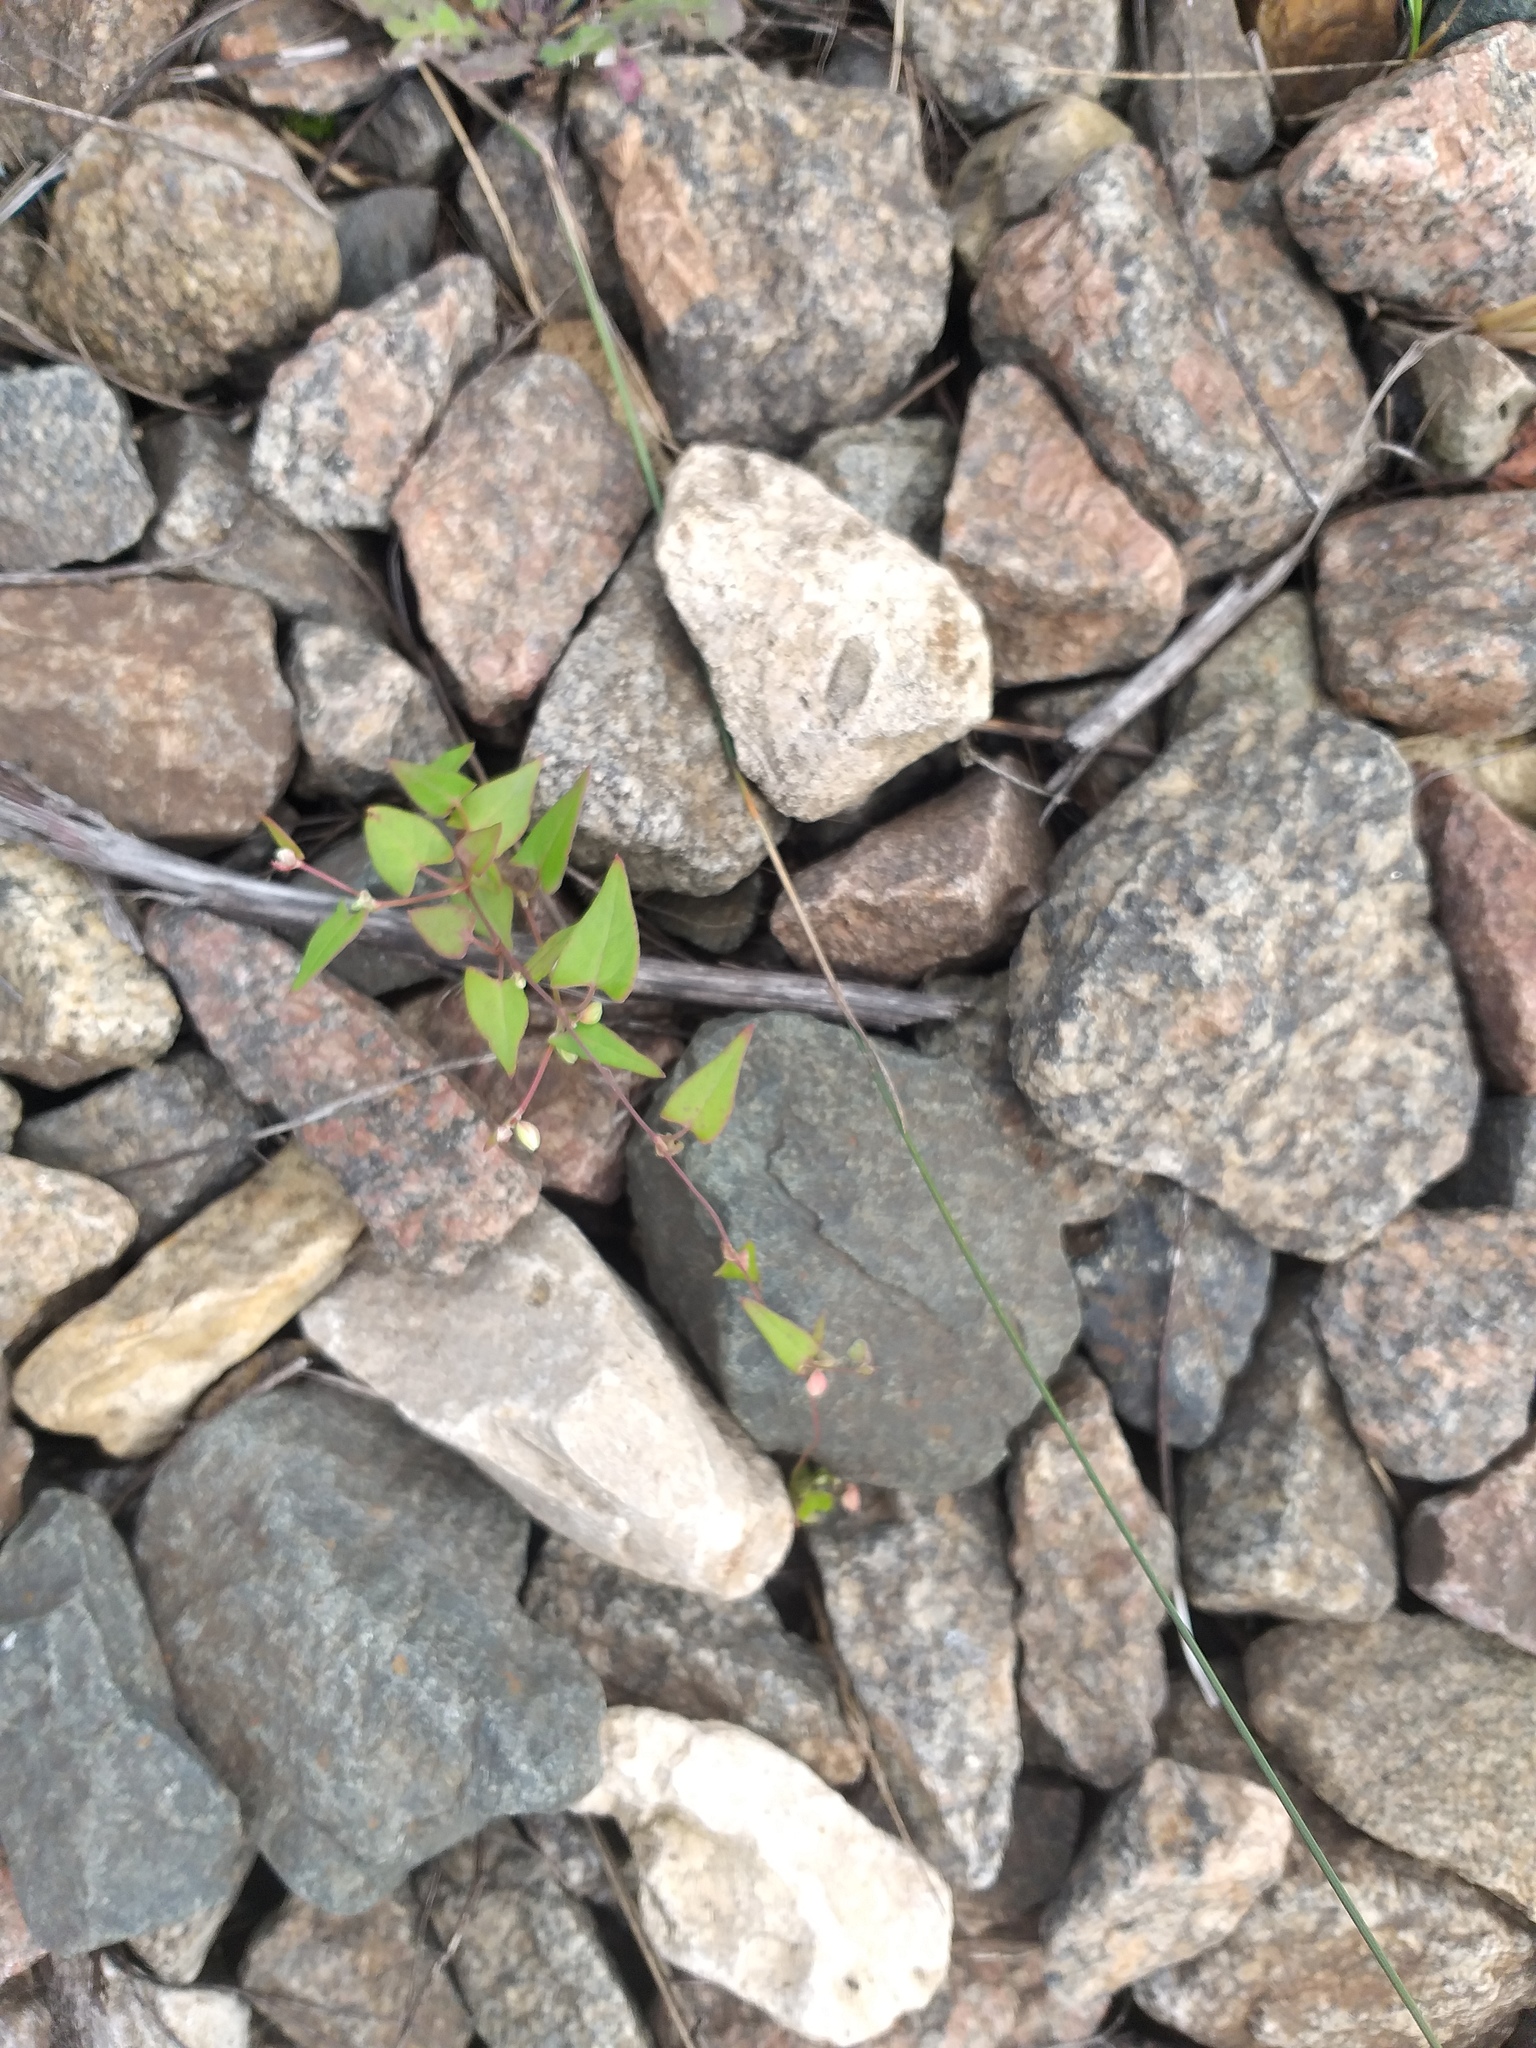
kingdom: Plantae
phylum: Tracheophyta
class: Magnoliopsida
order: Caryophyllales
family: Polygonaceae
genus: Fallopia
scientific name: Fallopia convolvulus
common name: Black bindweed
